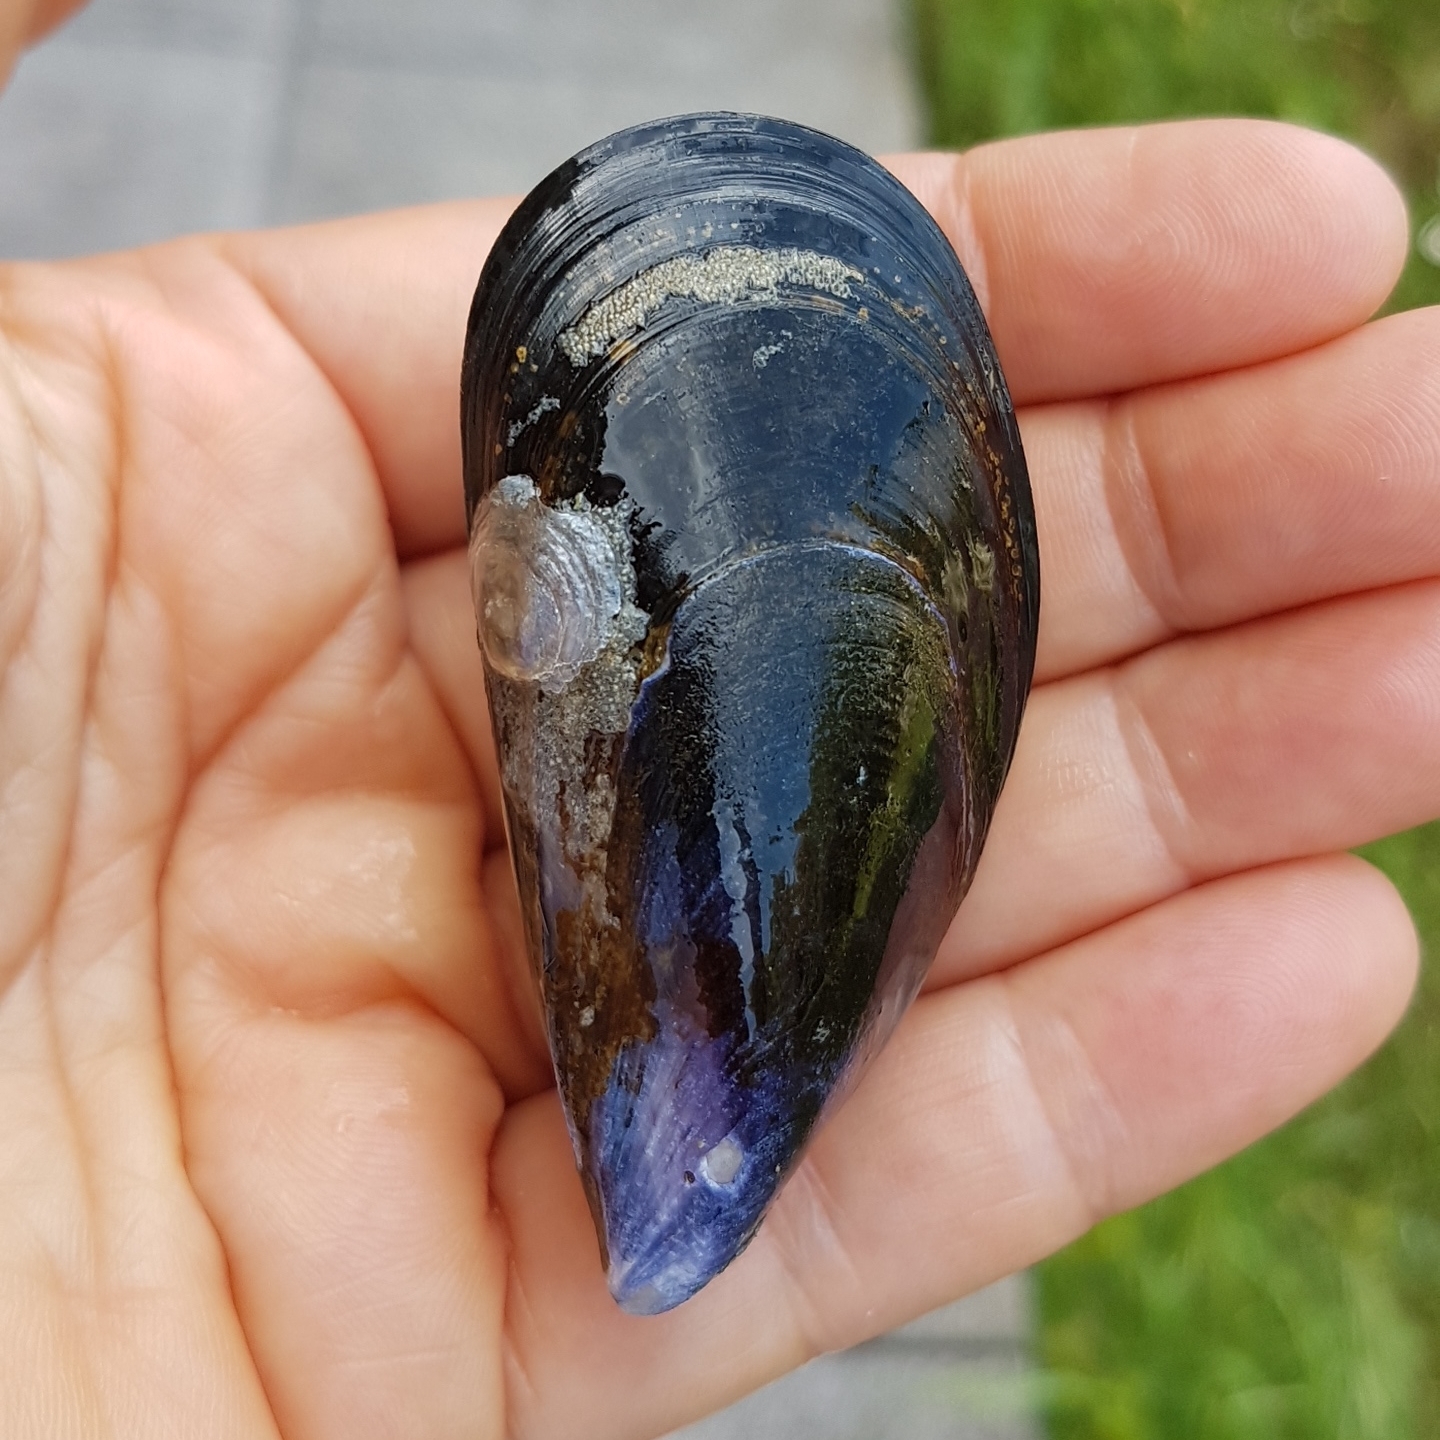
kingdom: Animalia
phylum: Mollusca
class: Bivalvia
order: Mytilida
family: Mytilidae
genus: Mytilus
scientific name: Mytilus
